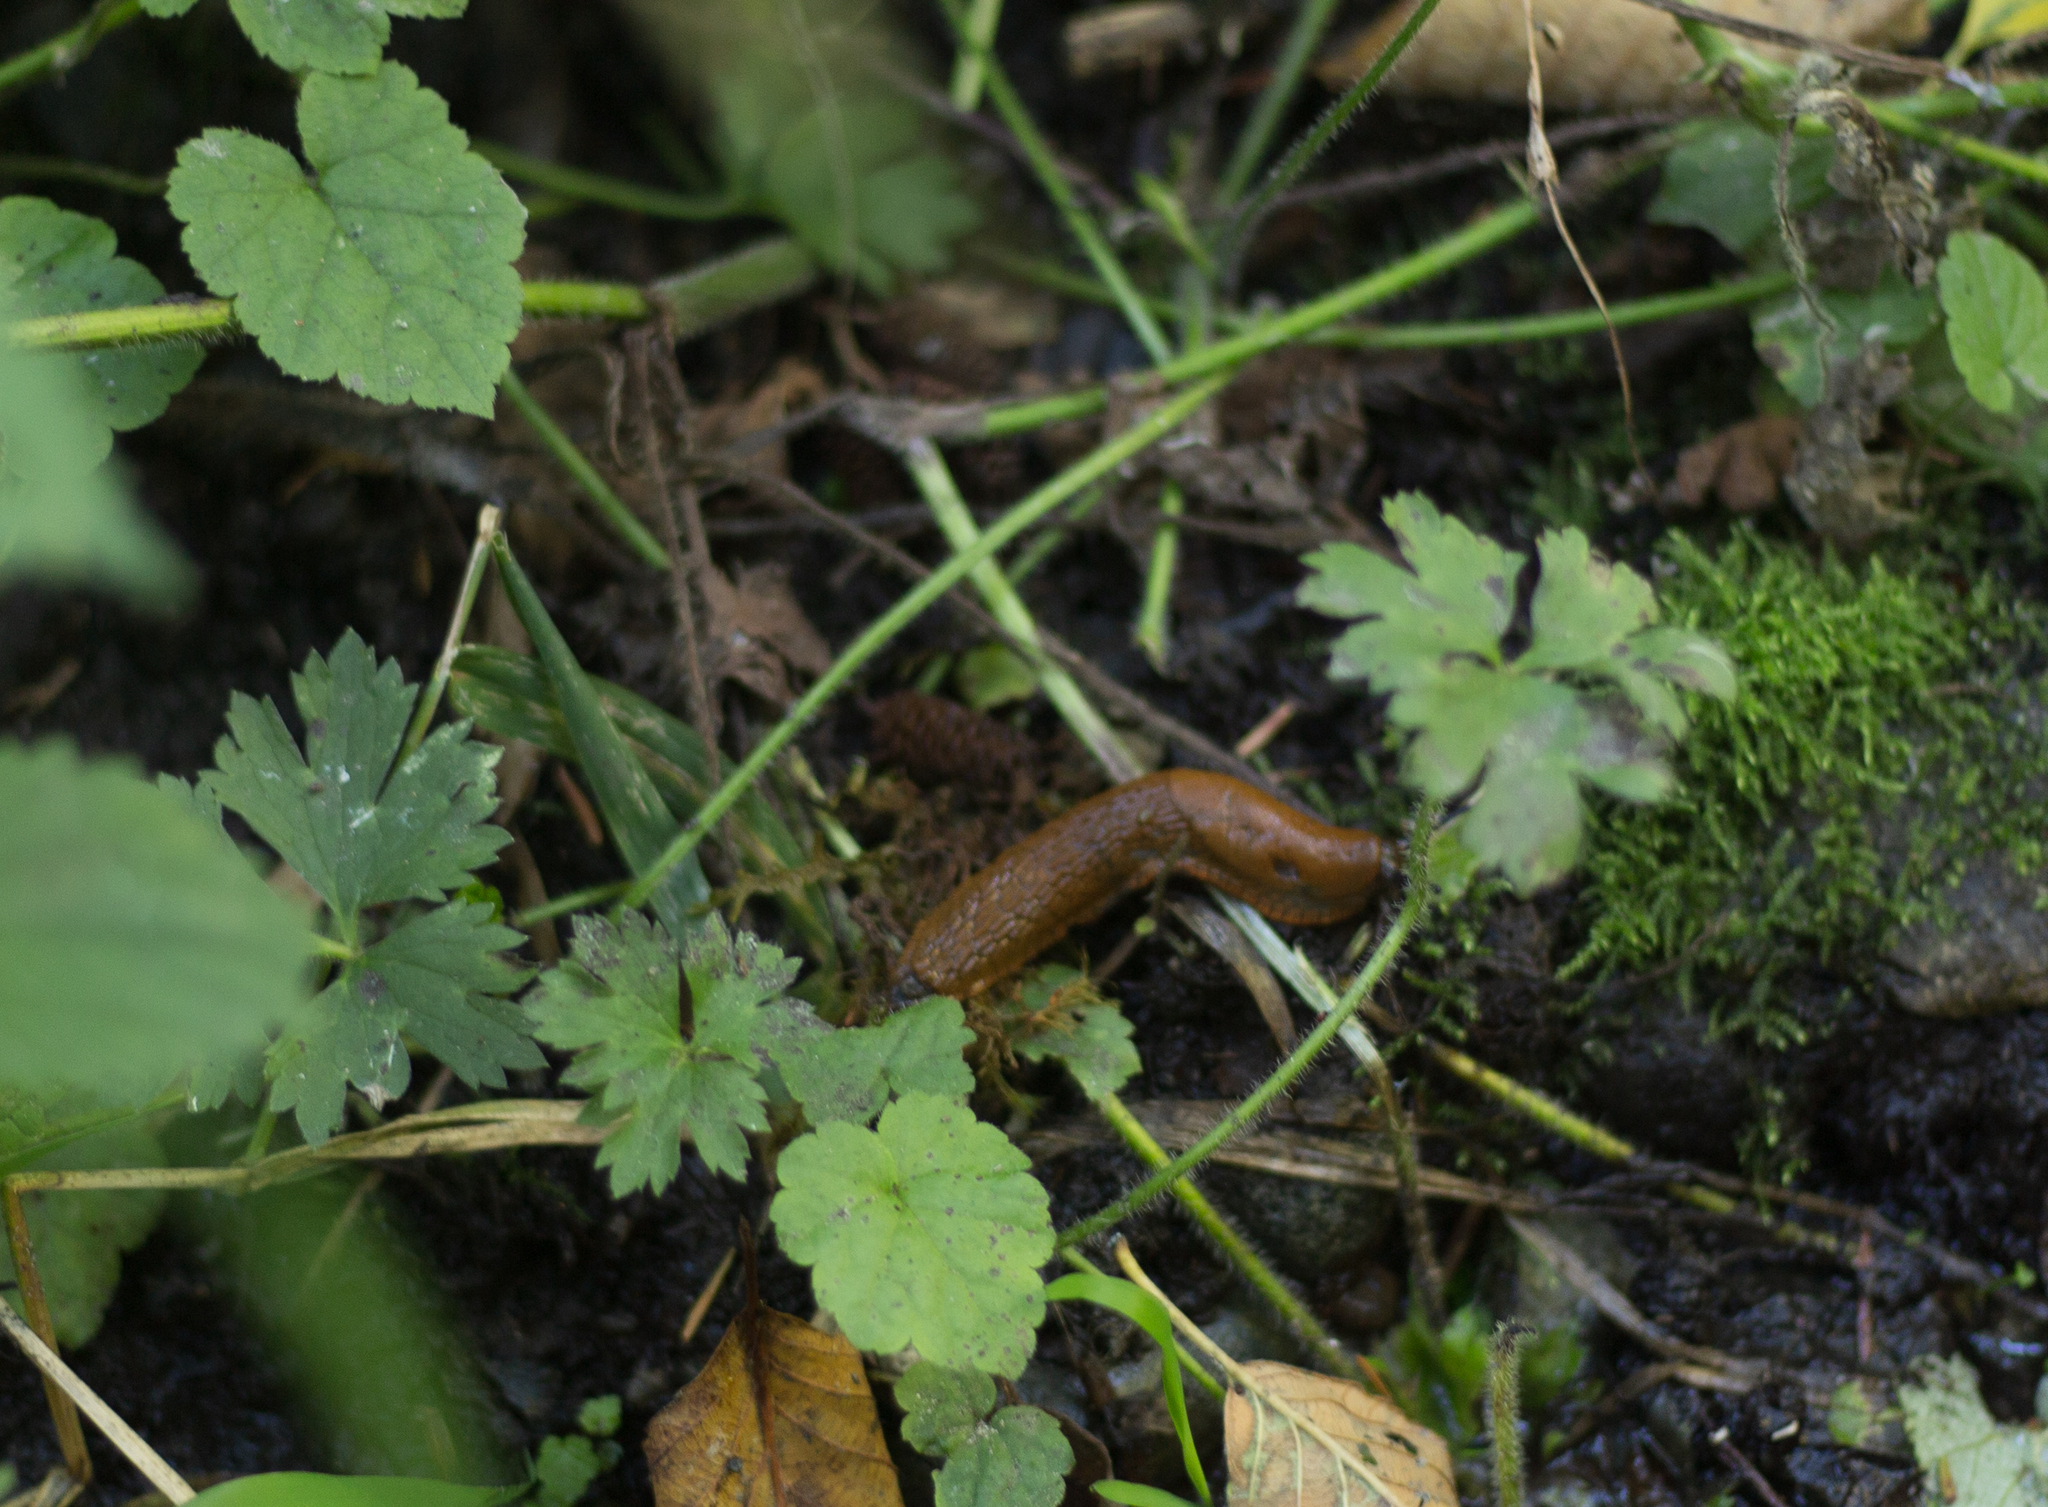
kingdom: Animalia
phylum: Mollusca
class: Gastropoda
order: Stylommatophora
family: Arionidae
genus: Arion
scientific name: Arion
